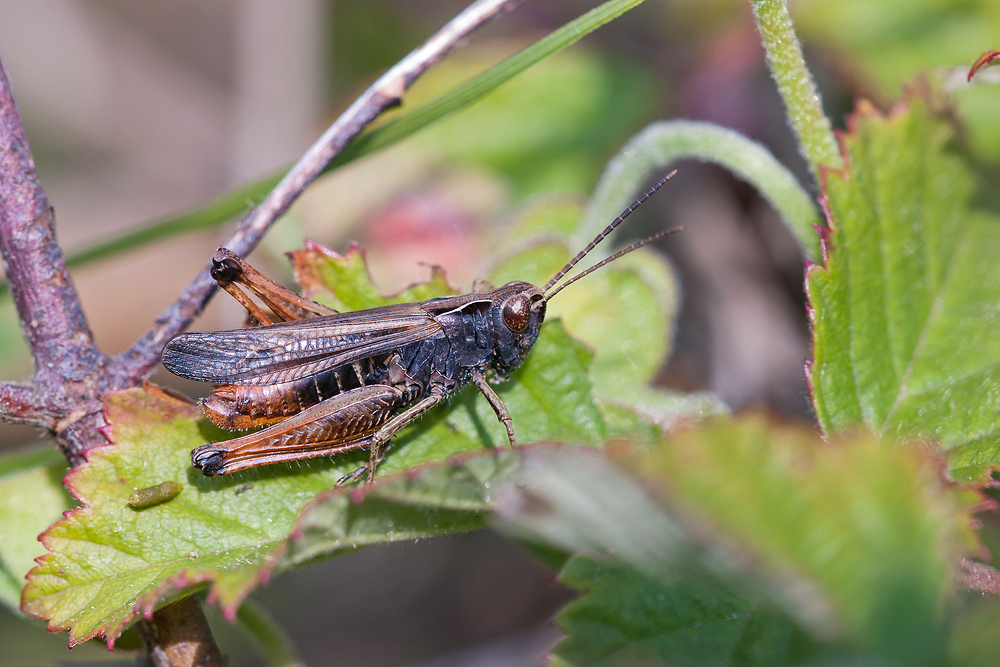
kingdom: Animalia
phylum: Arthropoda
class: Insecta
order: Orthoptera
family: Acrididae
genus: Omocestus
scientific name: Omocestus rufipes
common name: Woodland grasshopper
